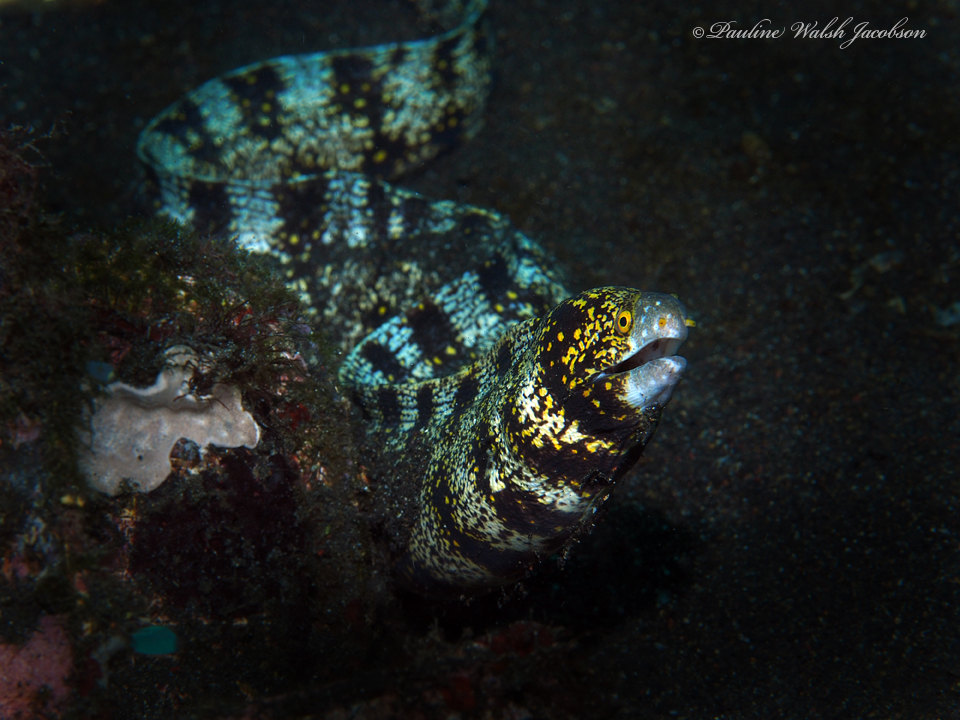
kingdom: Animalia
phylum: Chordata
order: Anguilliformes
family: Muraenidae
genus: Echidna
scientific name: Echidna nebulosa
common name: Snowflake moray
